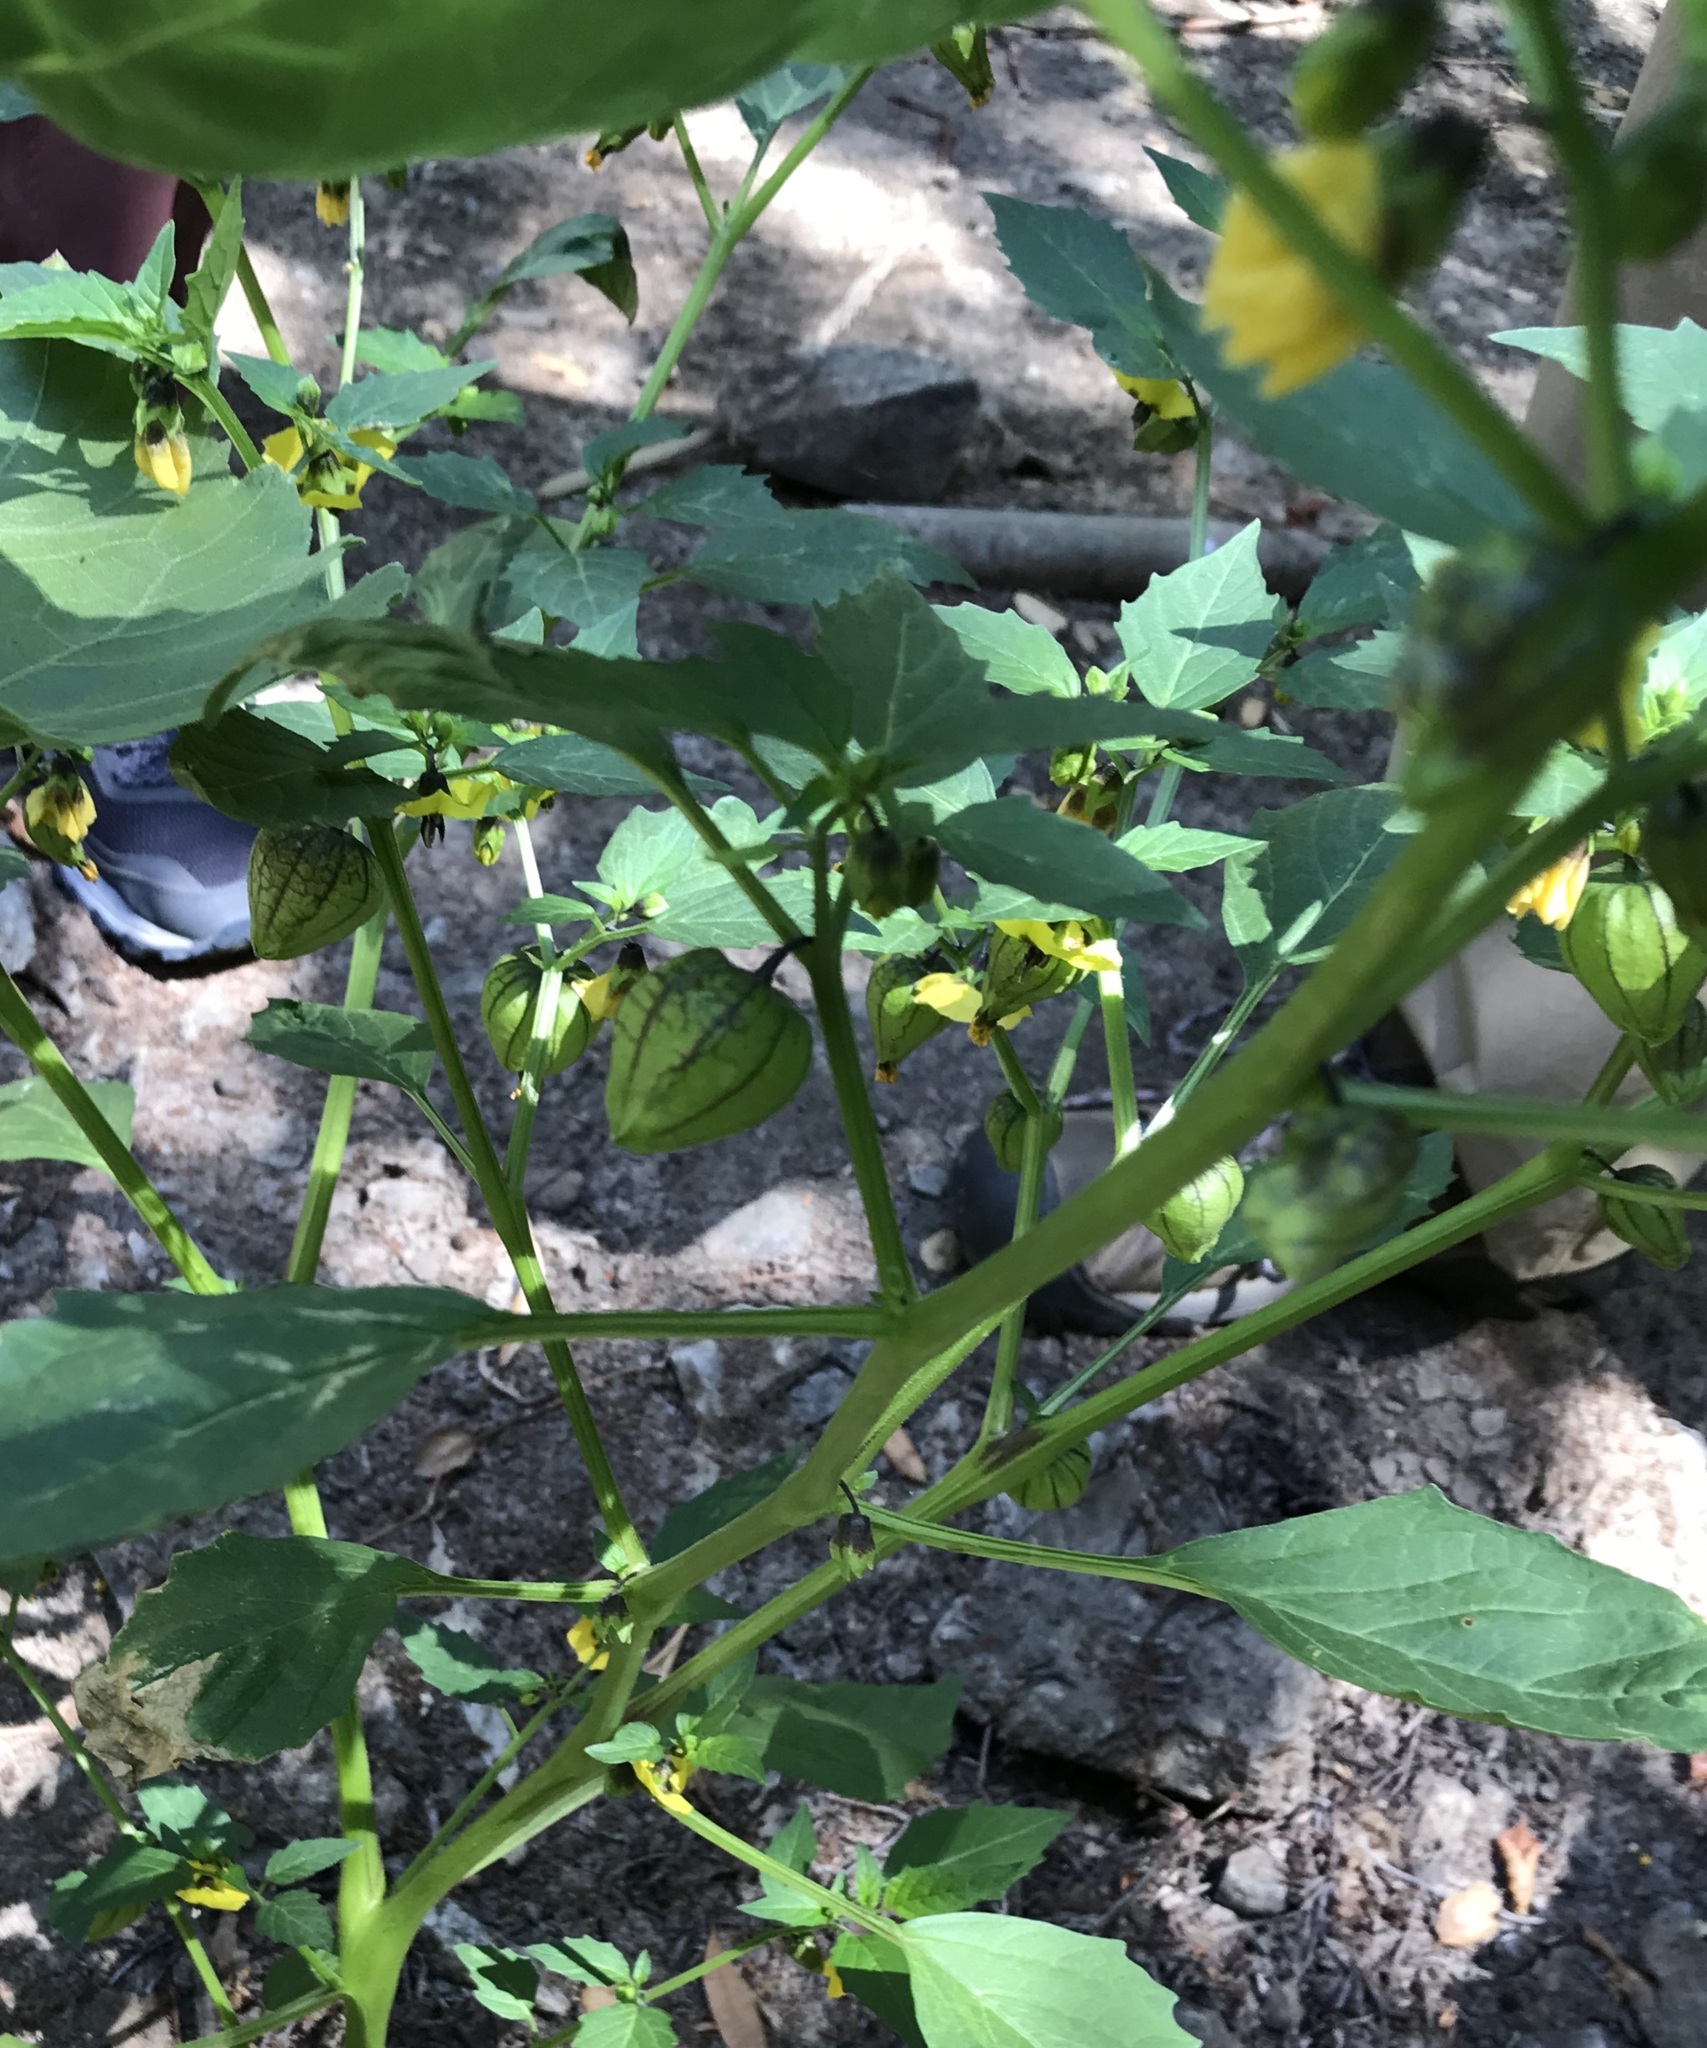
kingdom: Plantae
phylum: Tracheophyta
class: Magnoliopsida
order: Solanales
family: Solanaceae
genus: Physalis
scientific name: Physalis philadelphica
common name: Husk-tomato
